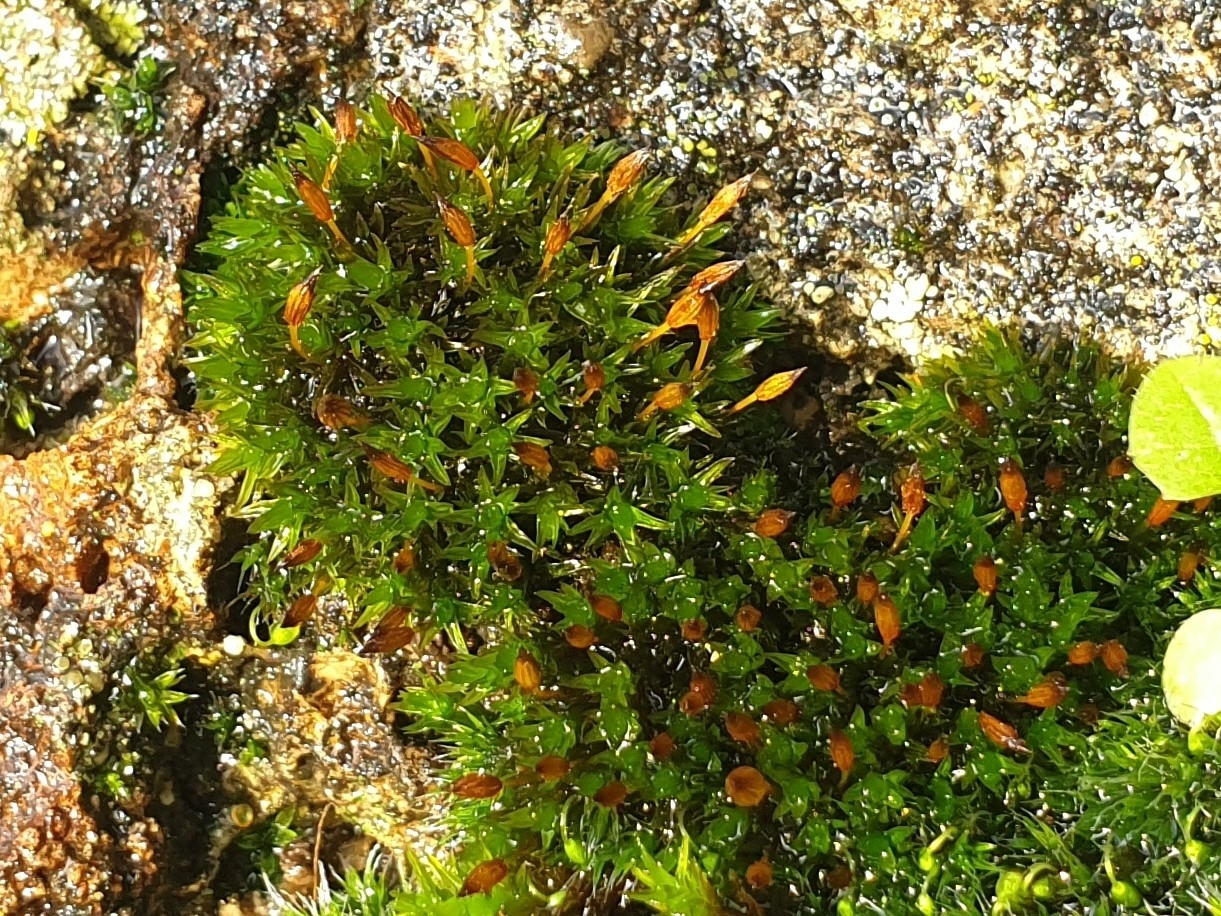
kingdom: Plantae
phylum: Bryophyta
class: Bryopsida
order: Orthotrichales
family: Orthotrichaceae
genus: Orthotrichum
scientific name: Orthotrichum anomalum
